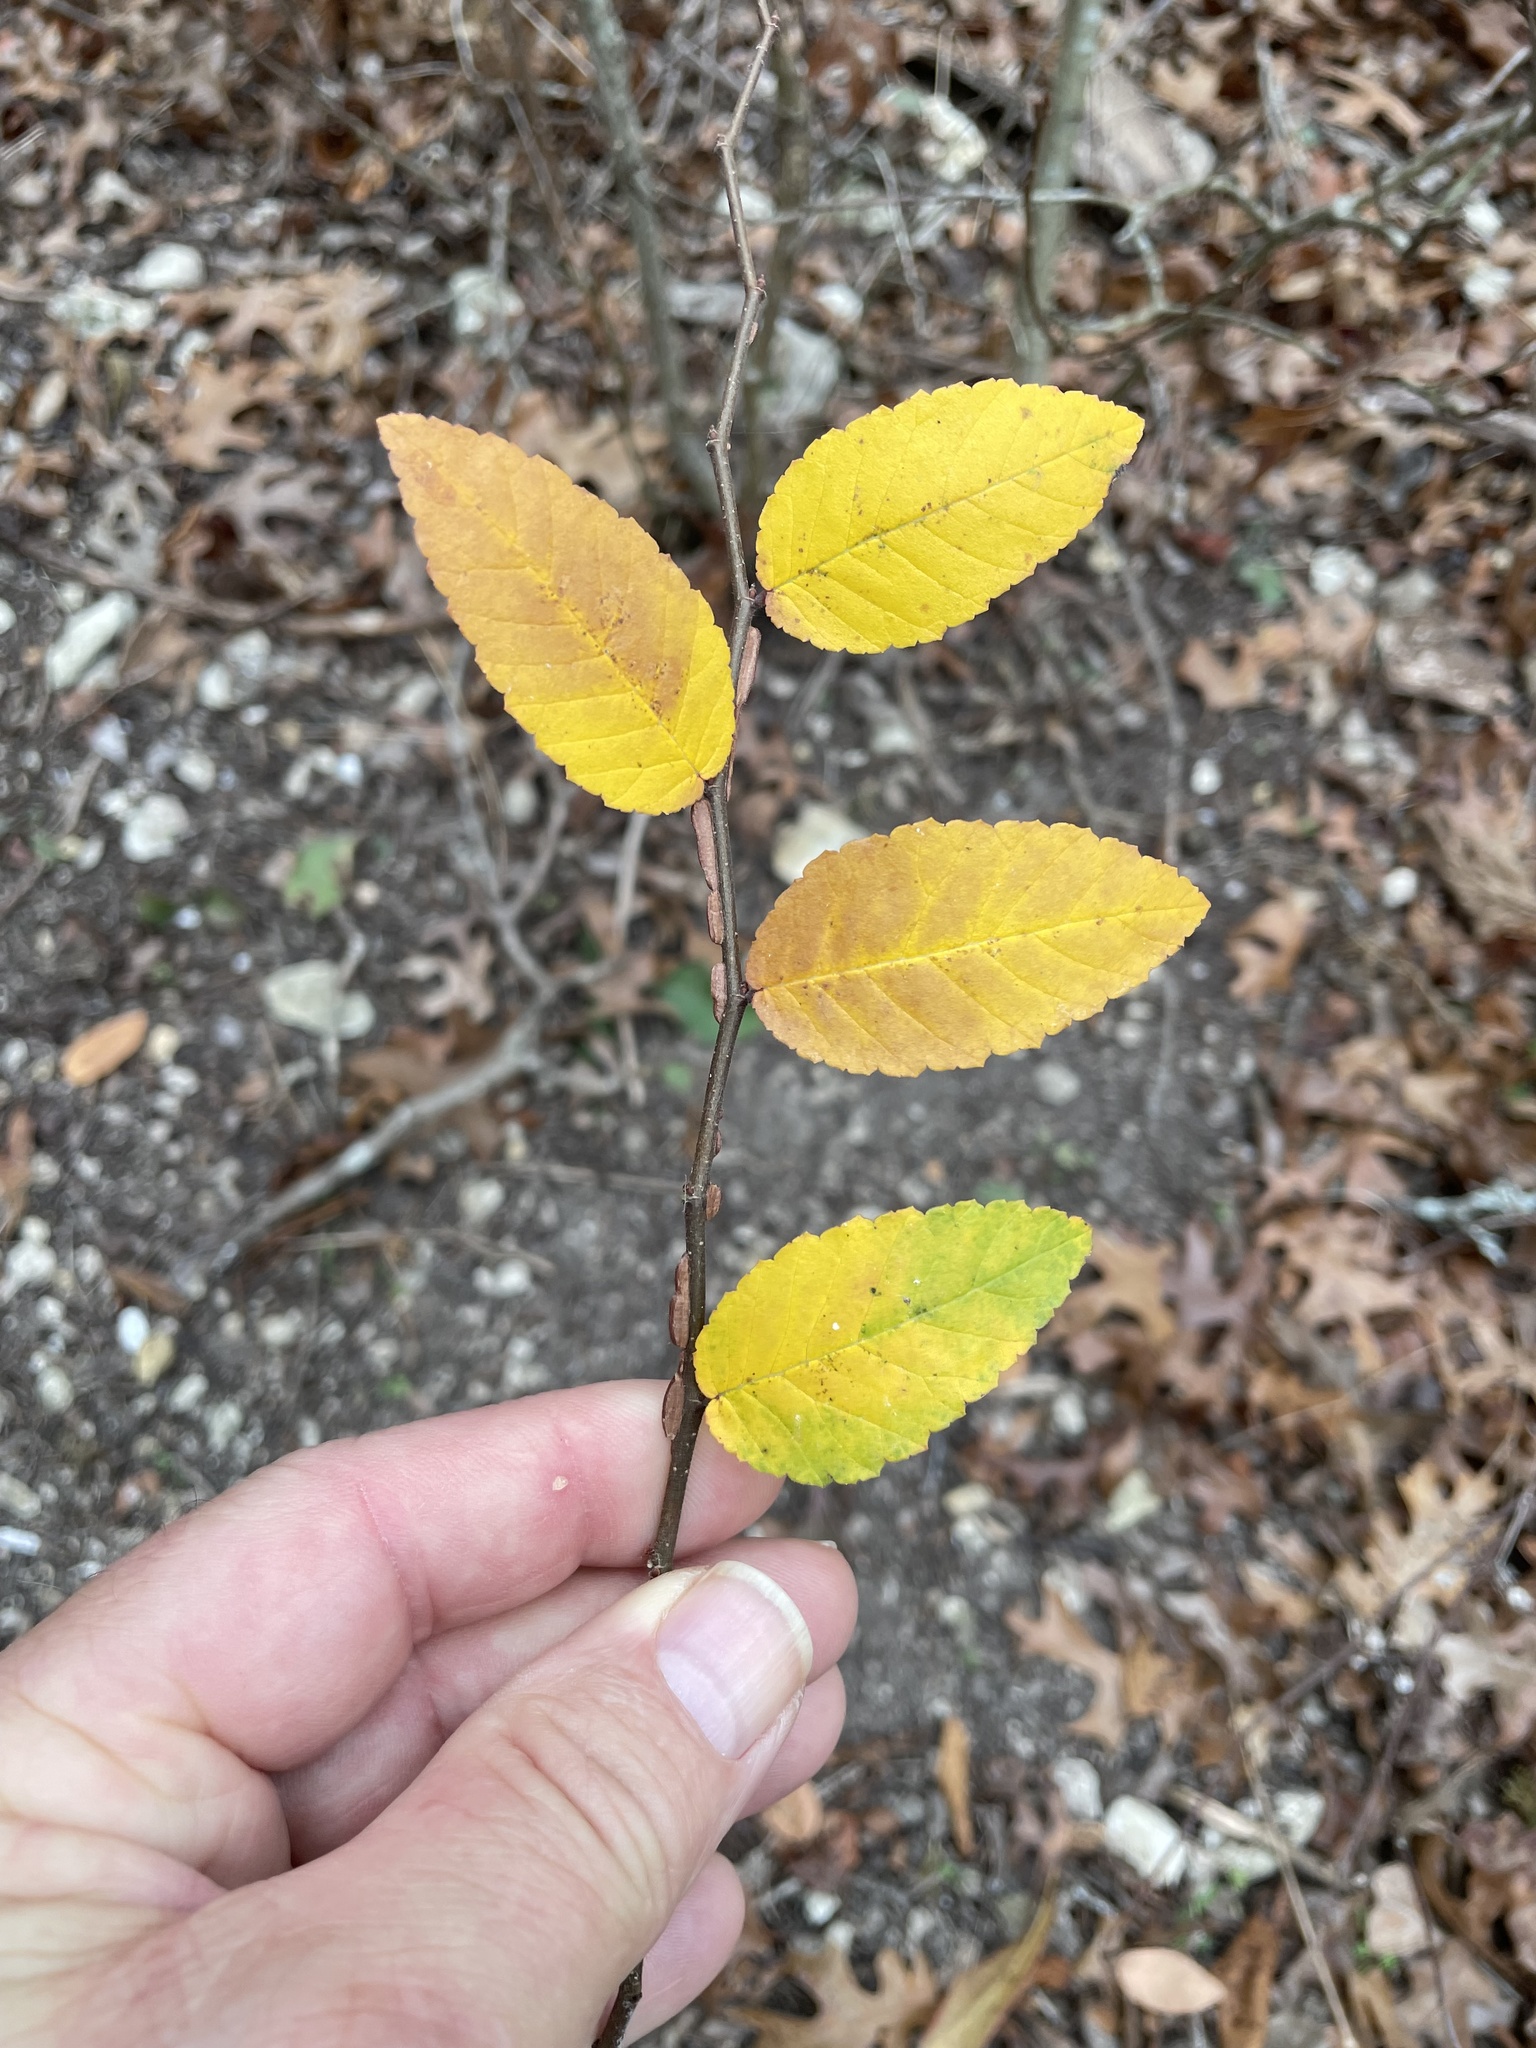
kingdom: Plantae
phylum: Tracheophyta
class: Magnoliopsida
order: Rosales
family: Ulmaceae
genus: Ulmus
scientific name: Ulmus crassifolia
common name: Basket elm
